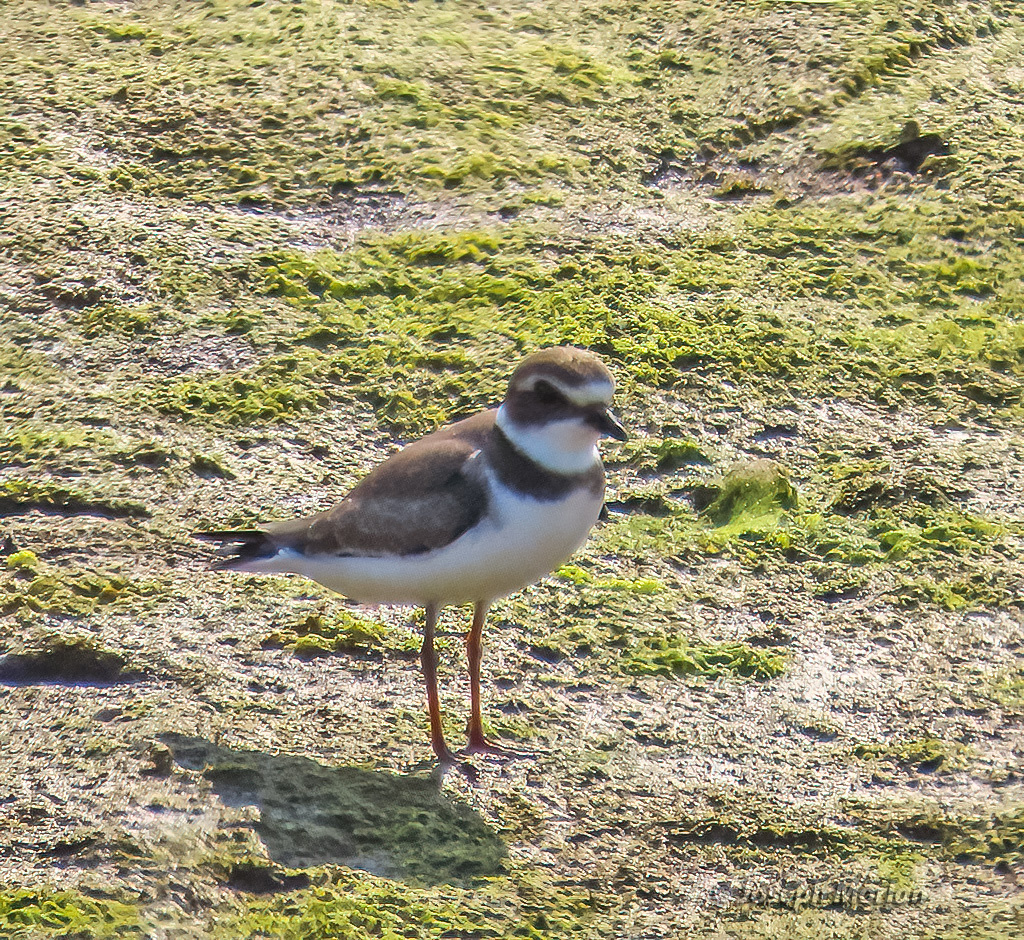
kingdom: Animalia
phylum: Chordata
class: Aves
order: Charadriiformes
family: Charadriidae
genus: Charadrius
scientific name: Charadrius semipalmatus
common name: Semipalmated plover
